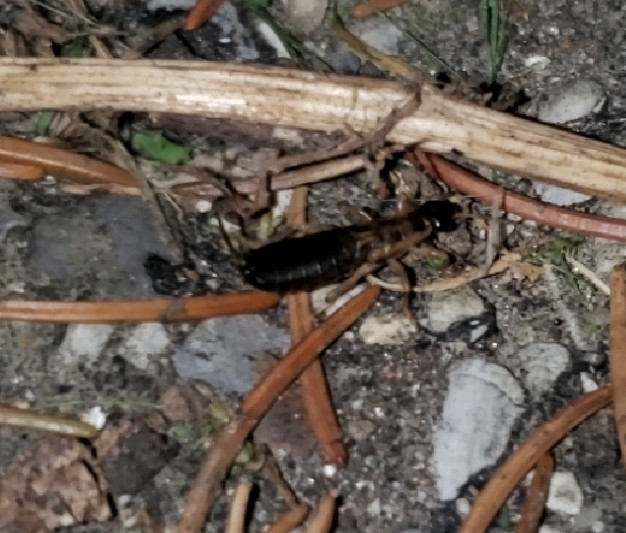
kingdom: Animalia
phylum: Arthropoda
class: Insecta
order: Dermaptera
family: Forficulidae
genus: Forficula
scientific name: Forficula
